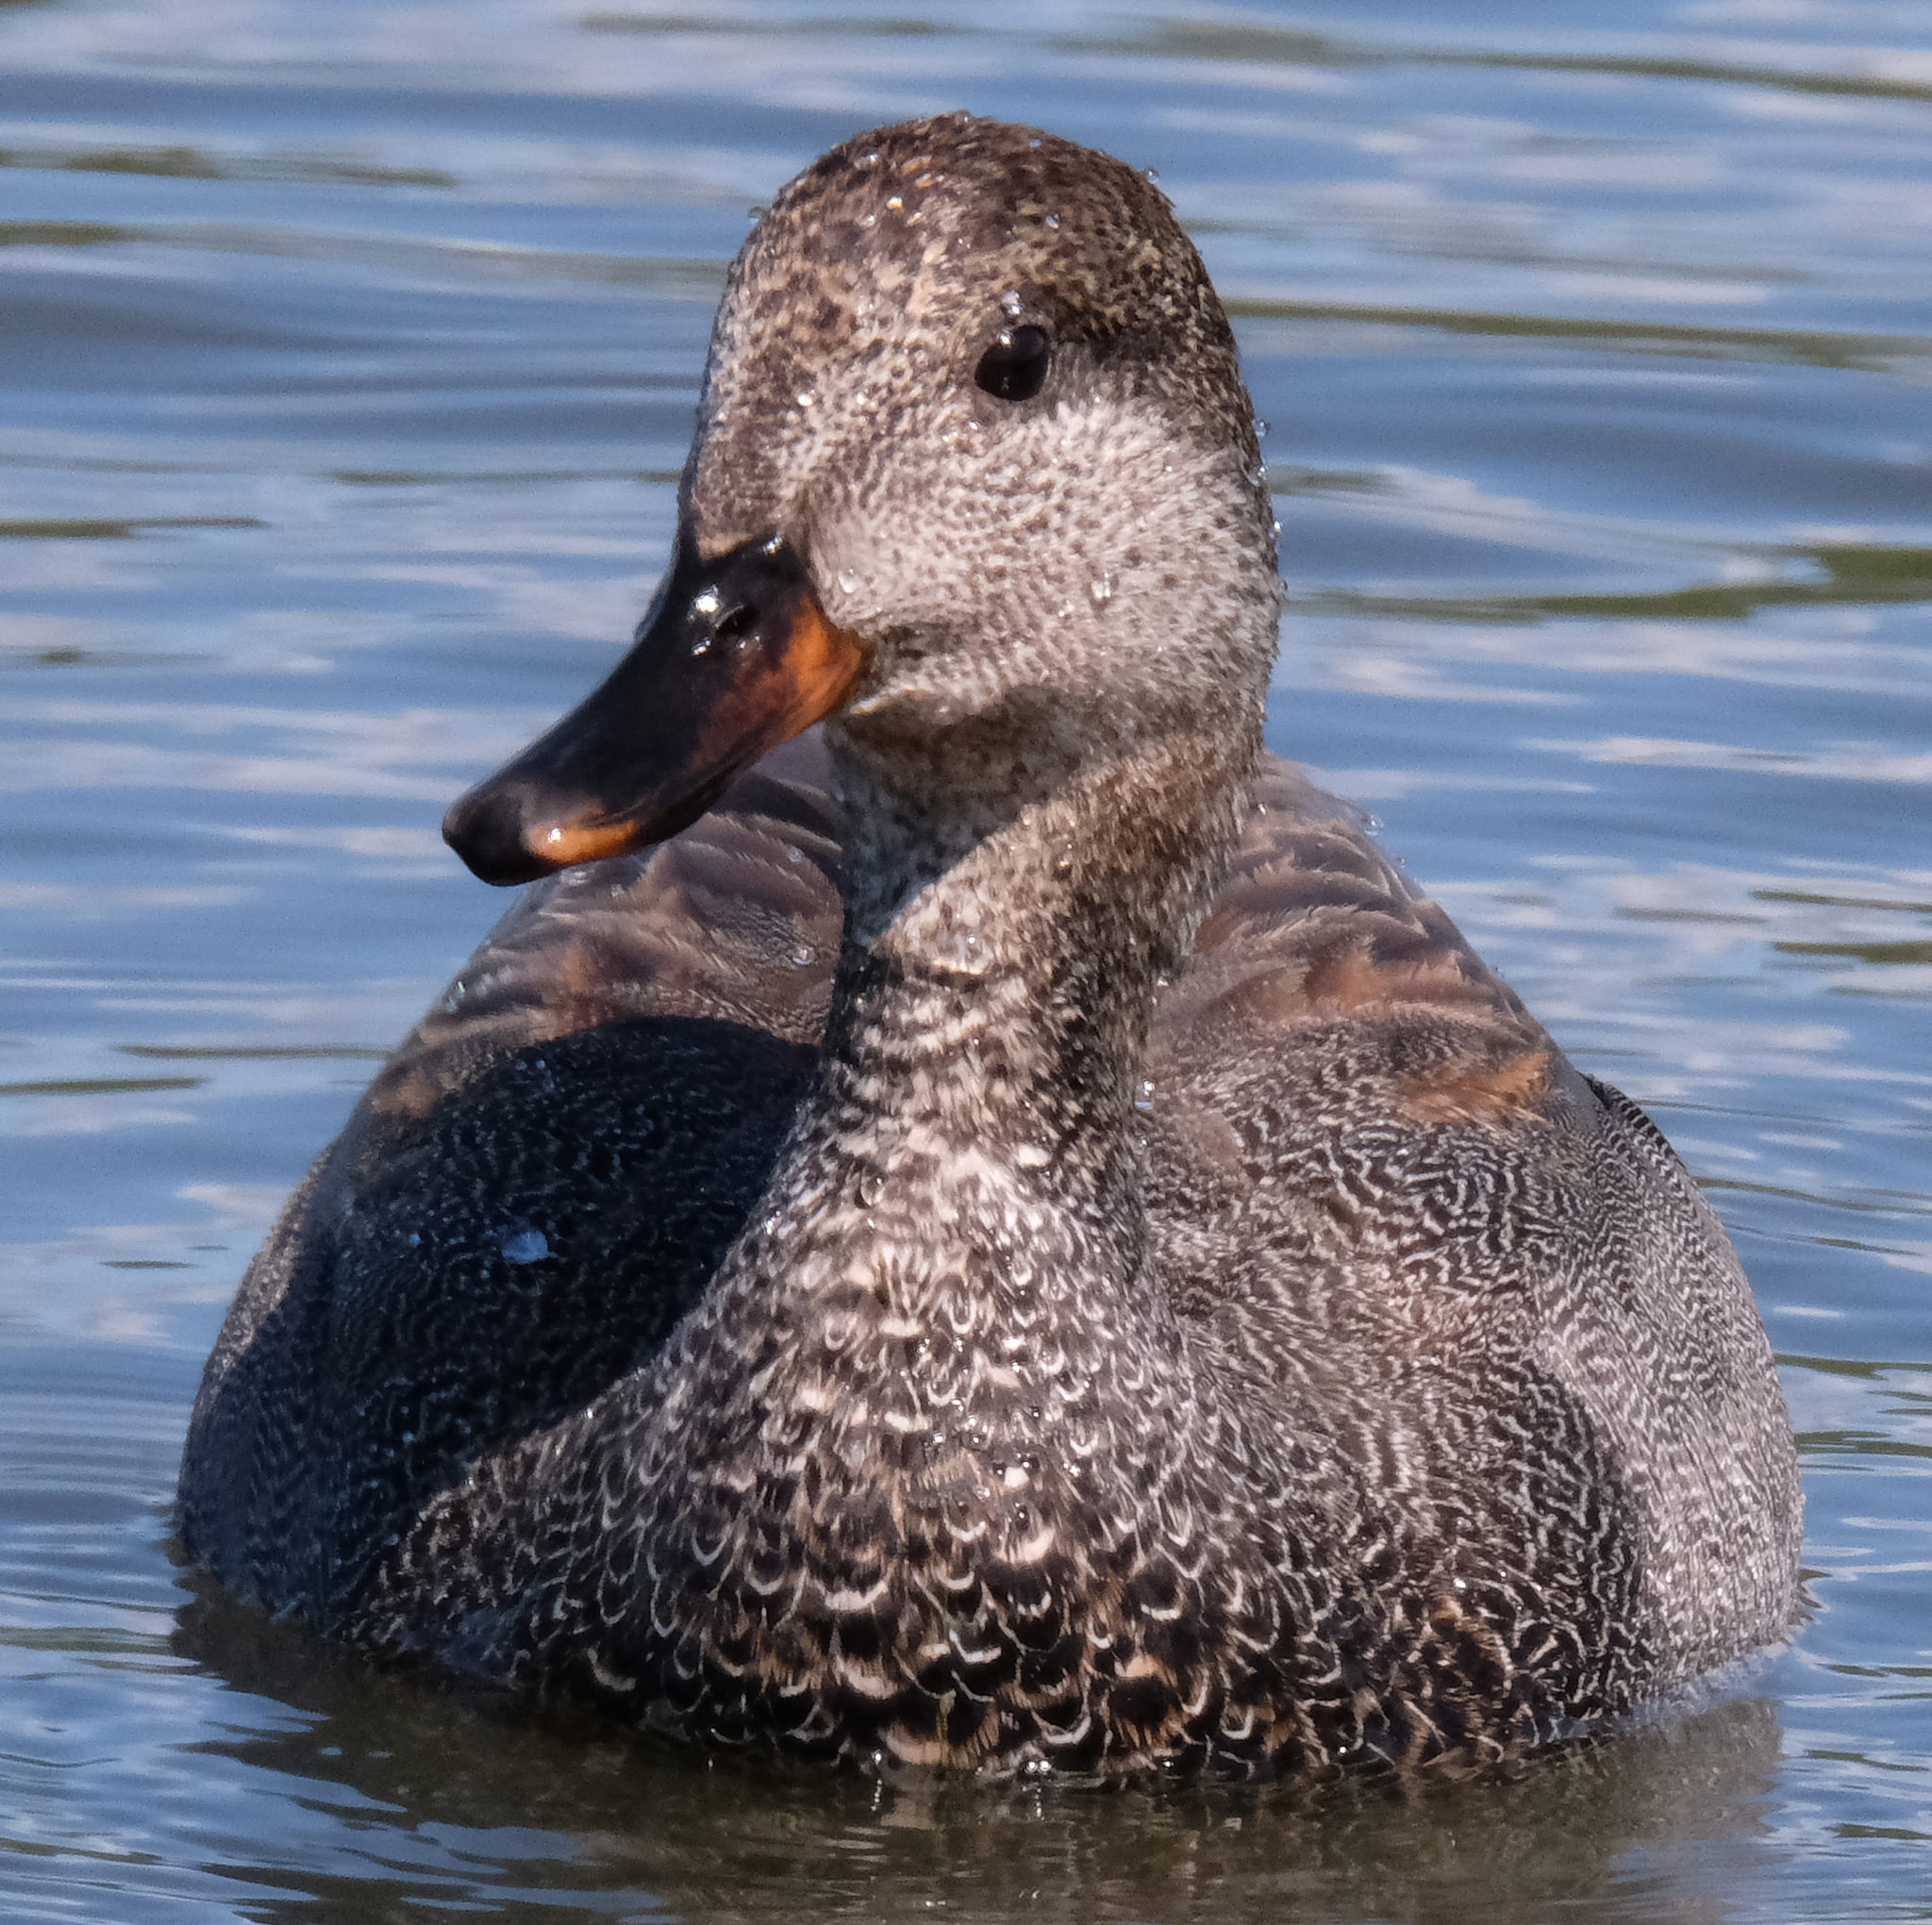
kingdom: Animalia
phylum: Chordata
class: Aves
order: Anseriformes
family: Anatidae
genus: Mareca
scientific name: Mareca strepera
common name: Gadwall
